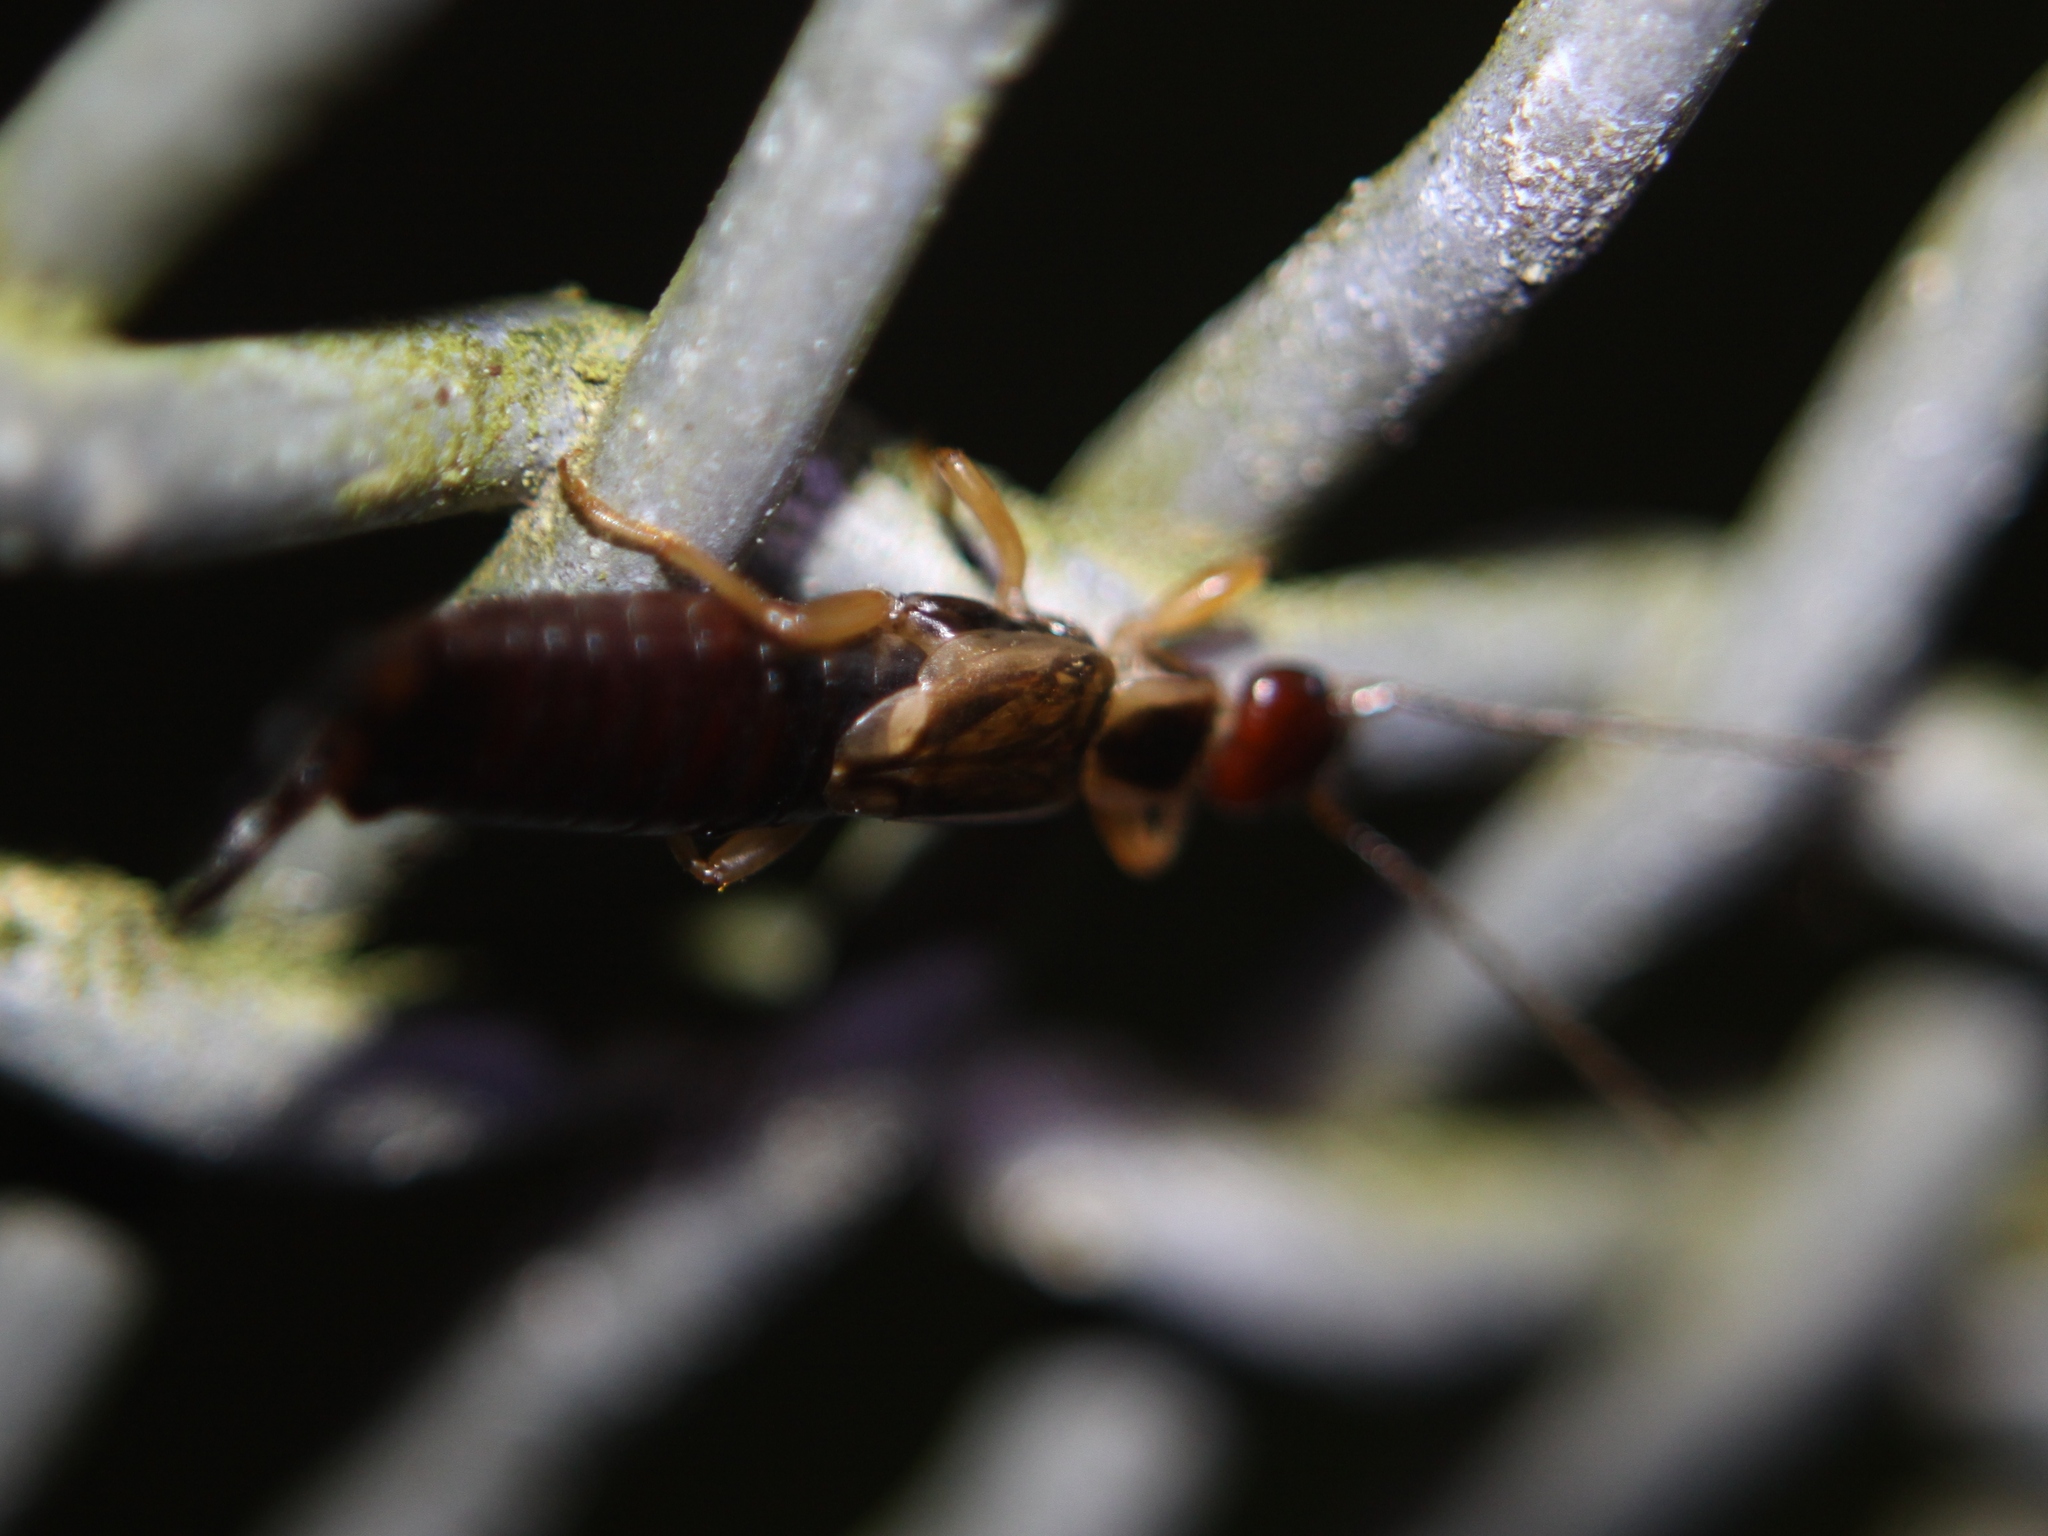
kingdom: Animalia
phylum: Arthropoda
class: Insecta
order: Dermaptera
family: Forficulidae
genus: Forficula
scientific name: Forficula
